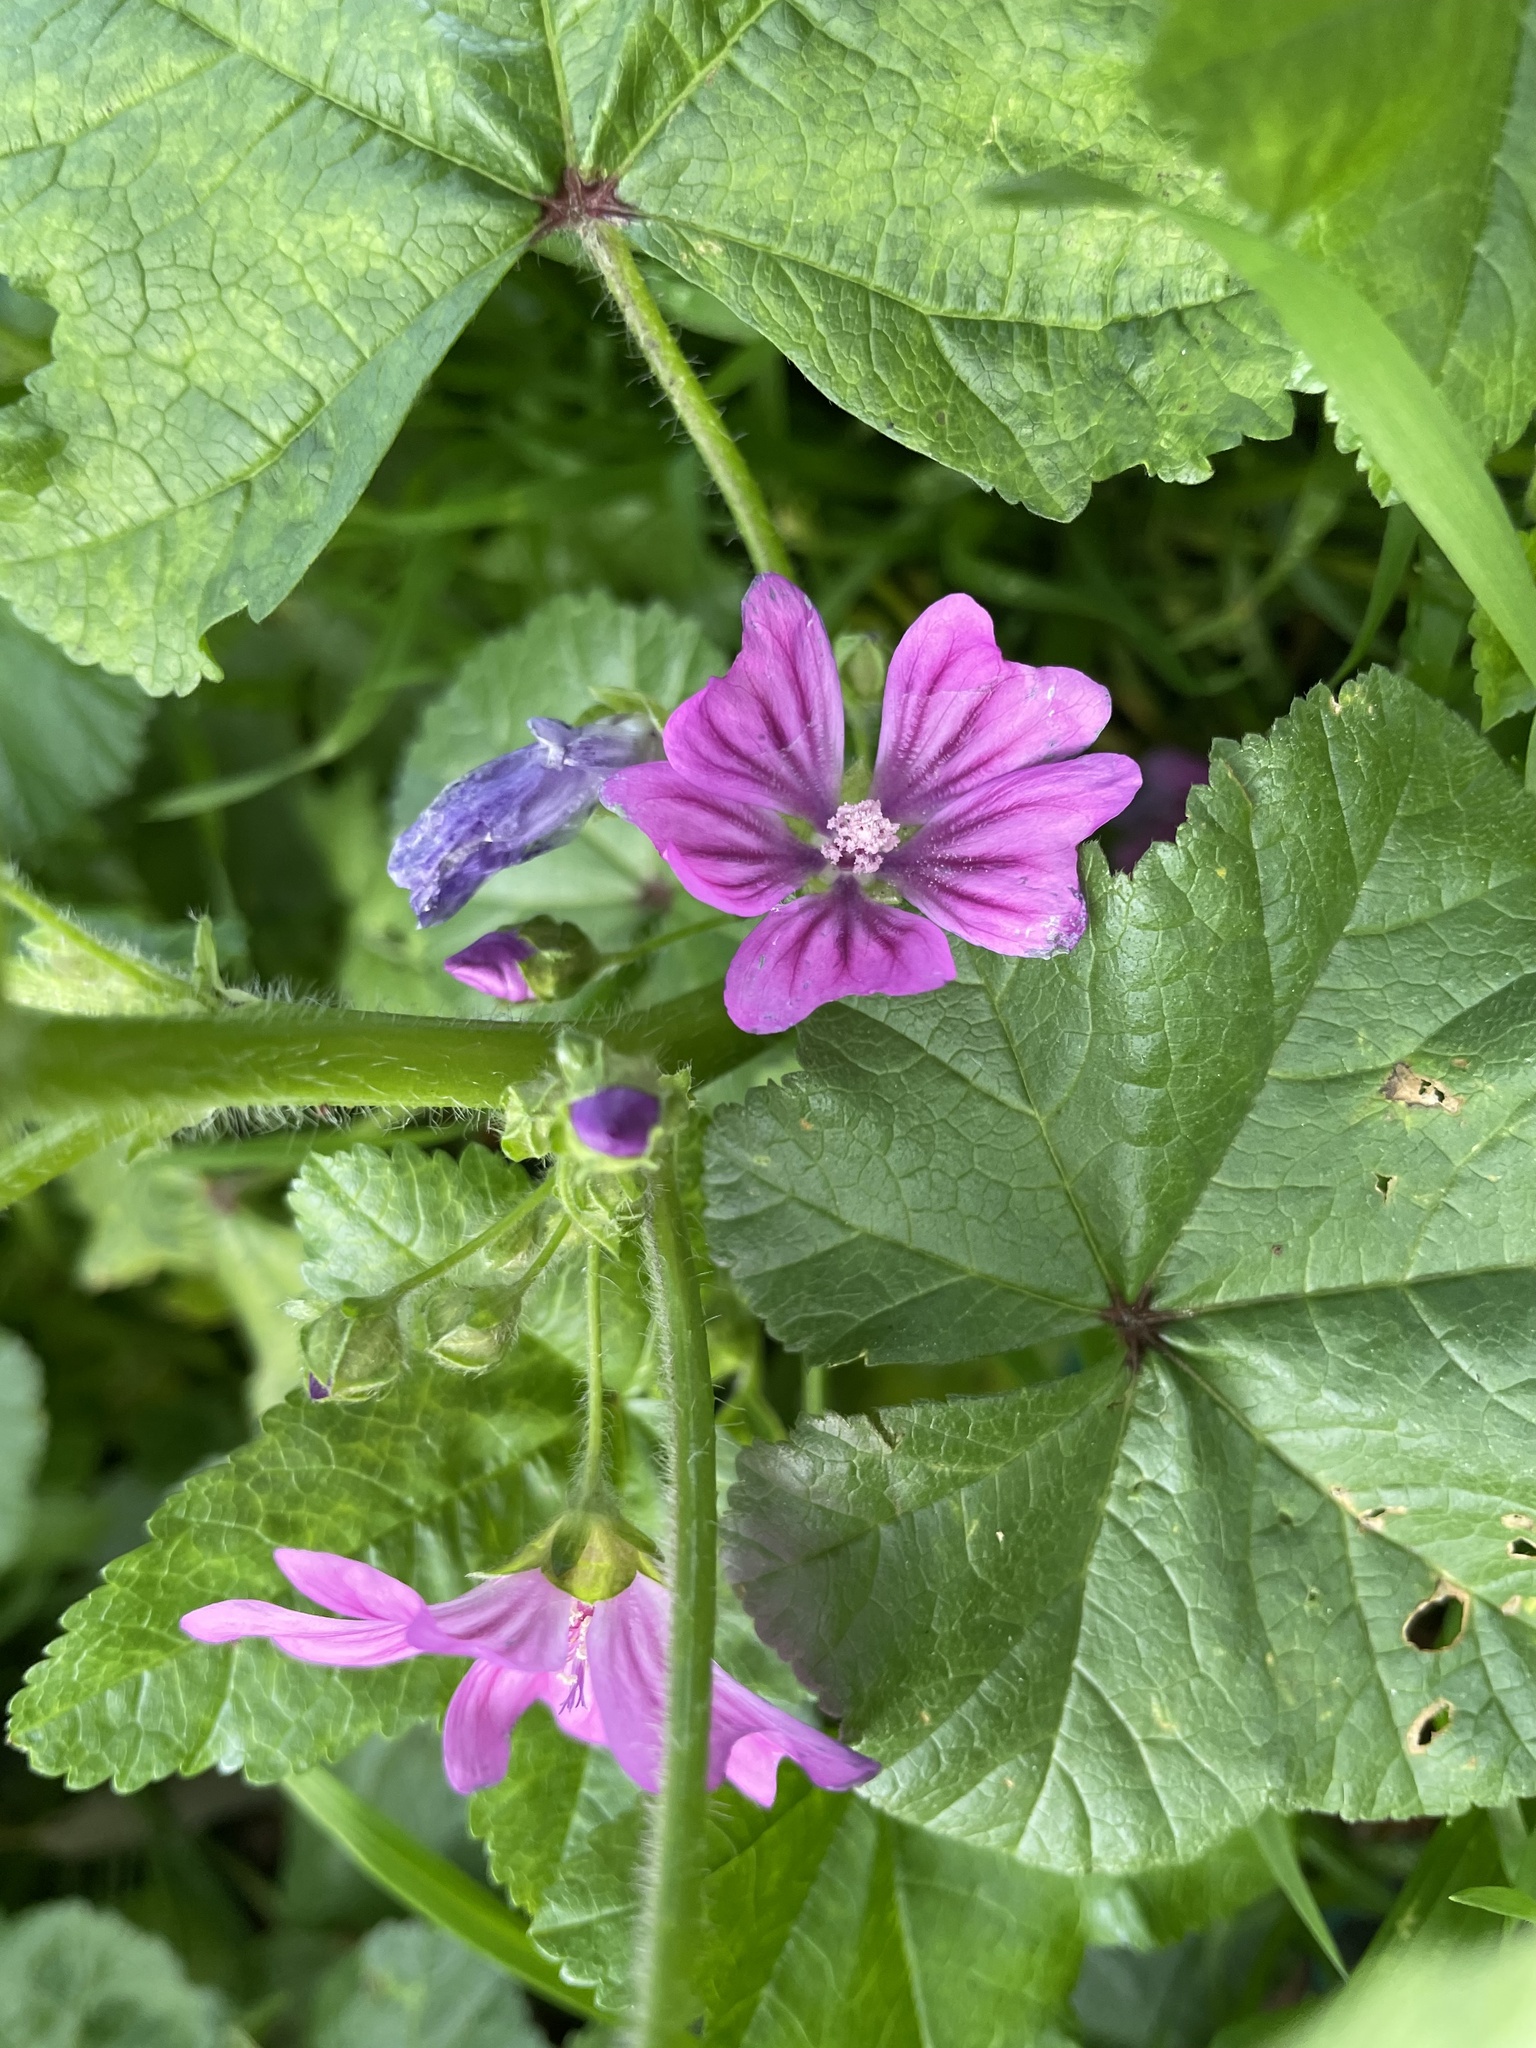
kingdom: Plantae
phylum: Tracheophyta
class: Magnoliopsida
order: Malvales
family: Malvaceae
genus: Malva
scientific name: Malva sylvestris
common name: Common mallow
